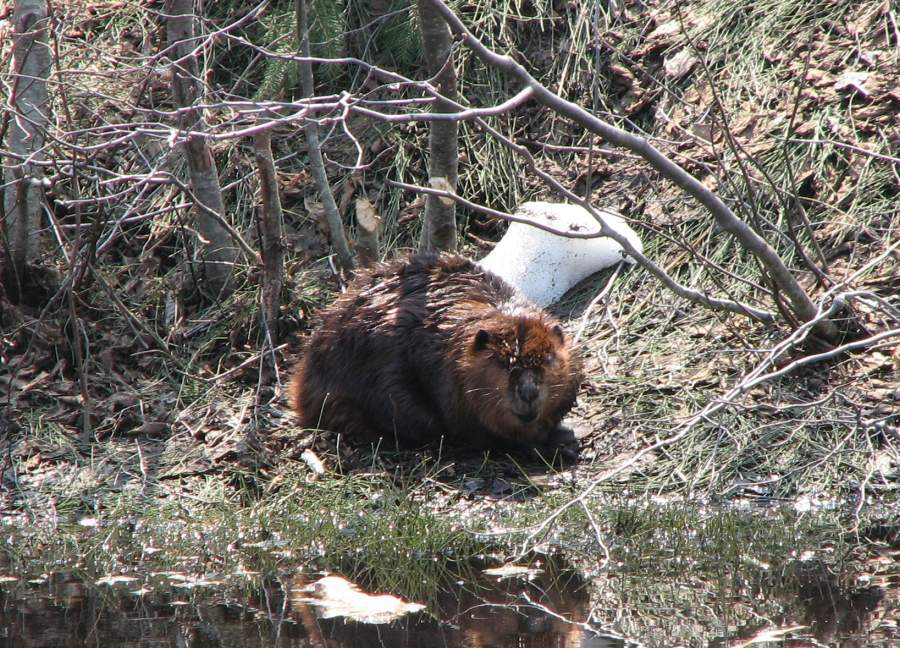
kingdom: Animalia
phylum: Chordata
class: Mammalia
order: Rodentia
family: Castoridae
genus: Castor
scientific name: Castor canadensis
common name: American beaver
